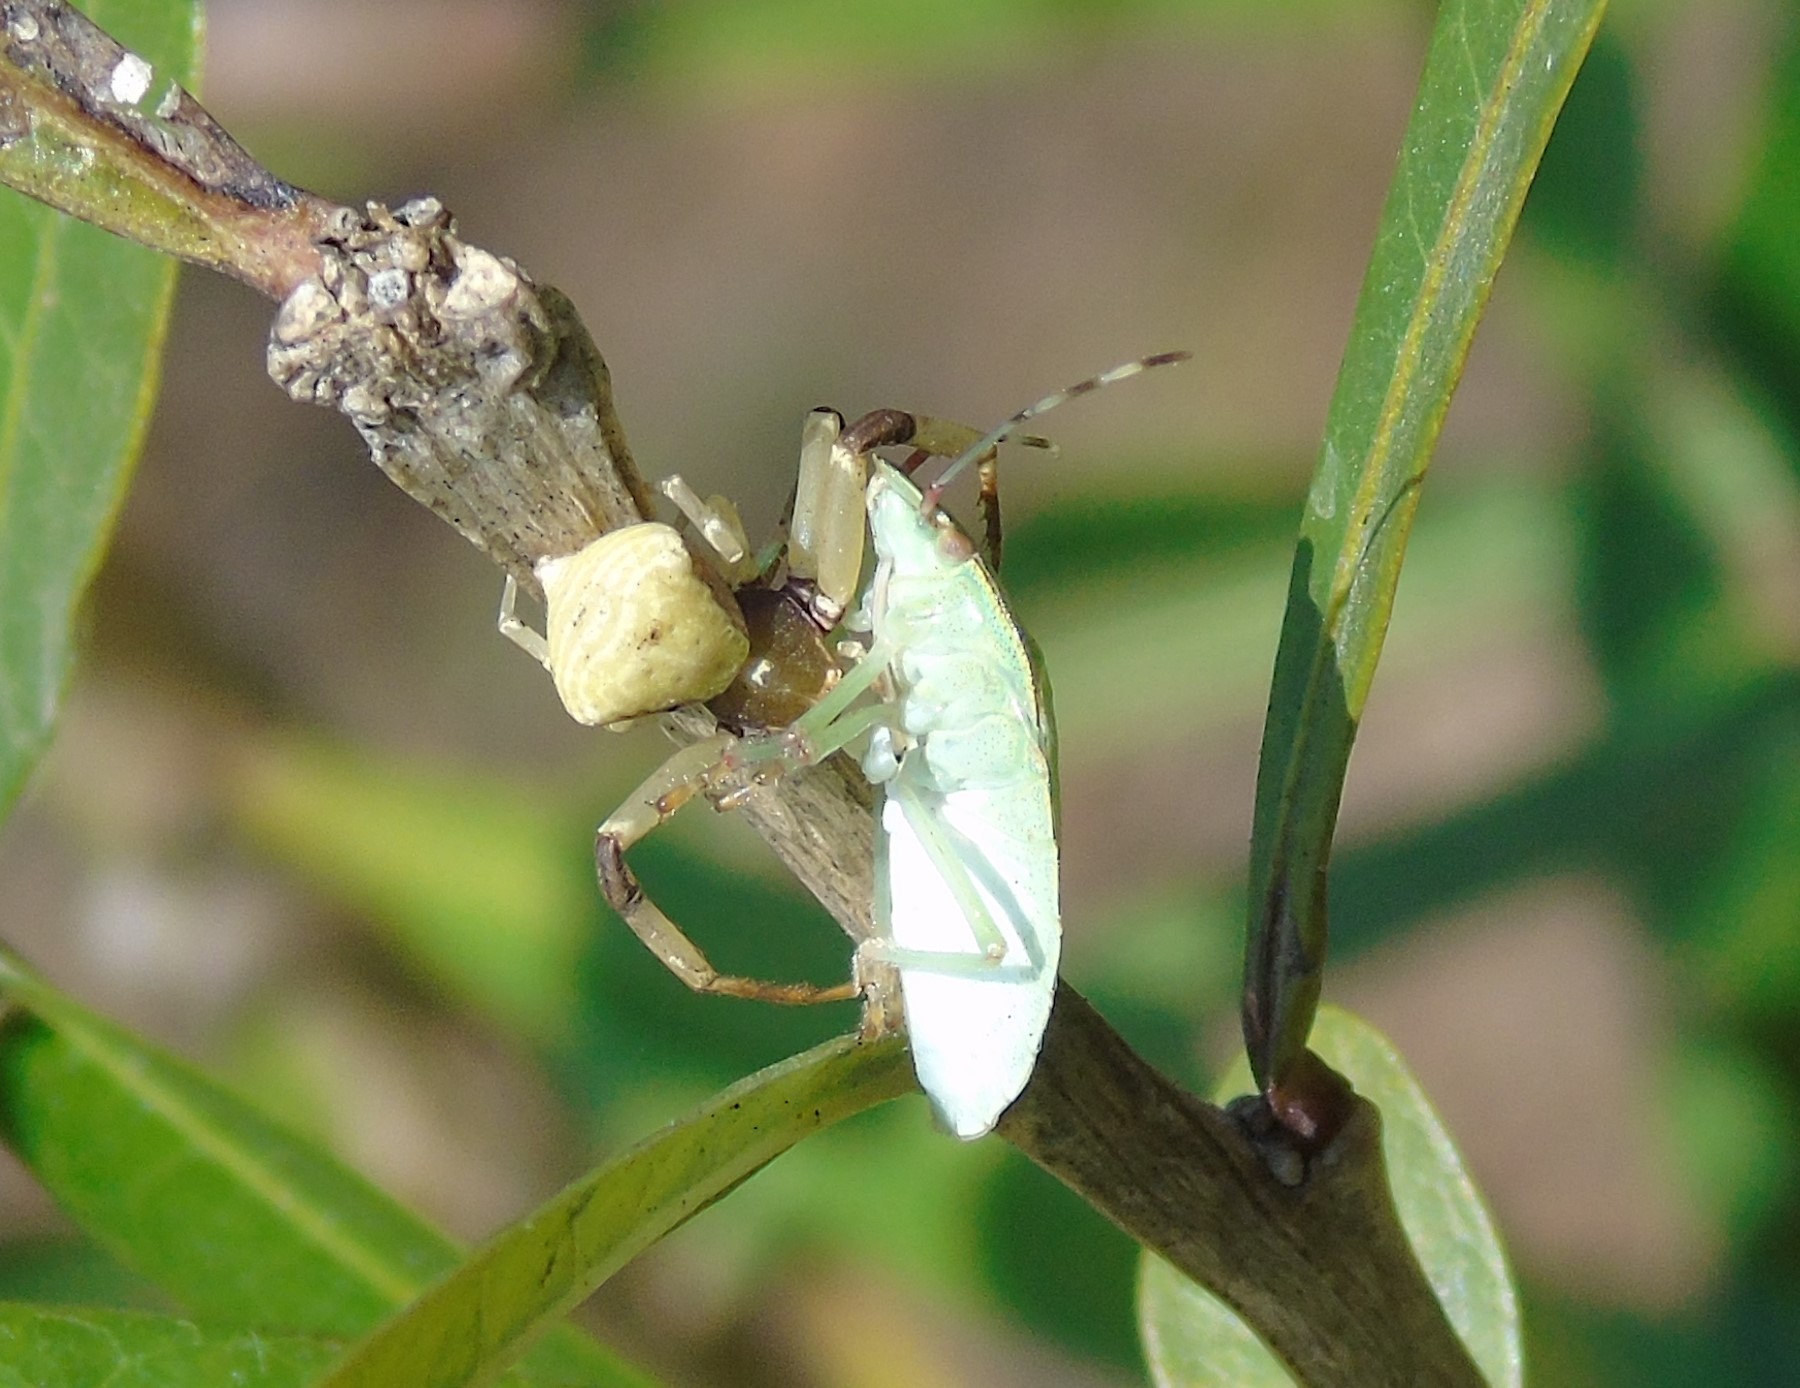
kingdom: Animalia
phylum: Arthropoda
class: Arachnida
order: Araneae
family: Thomisidae
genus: Misumenoides
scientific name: Misumenoides
